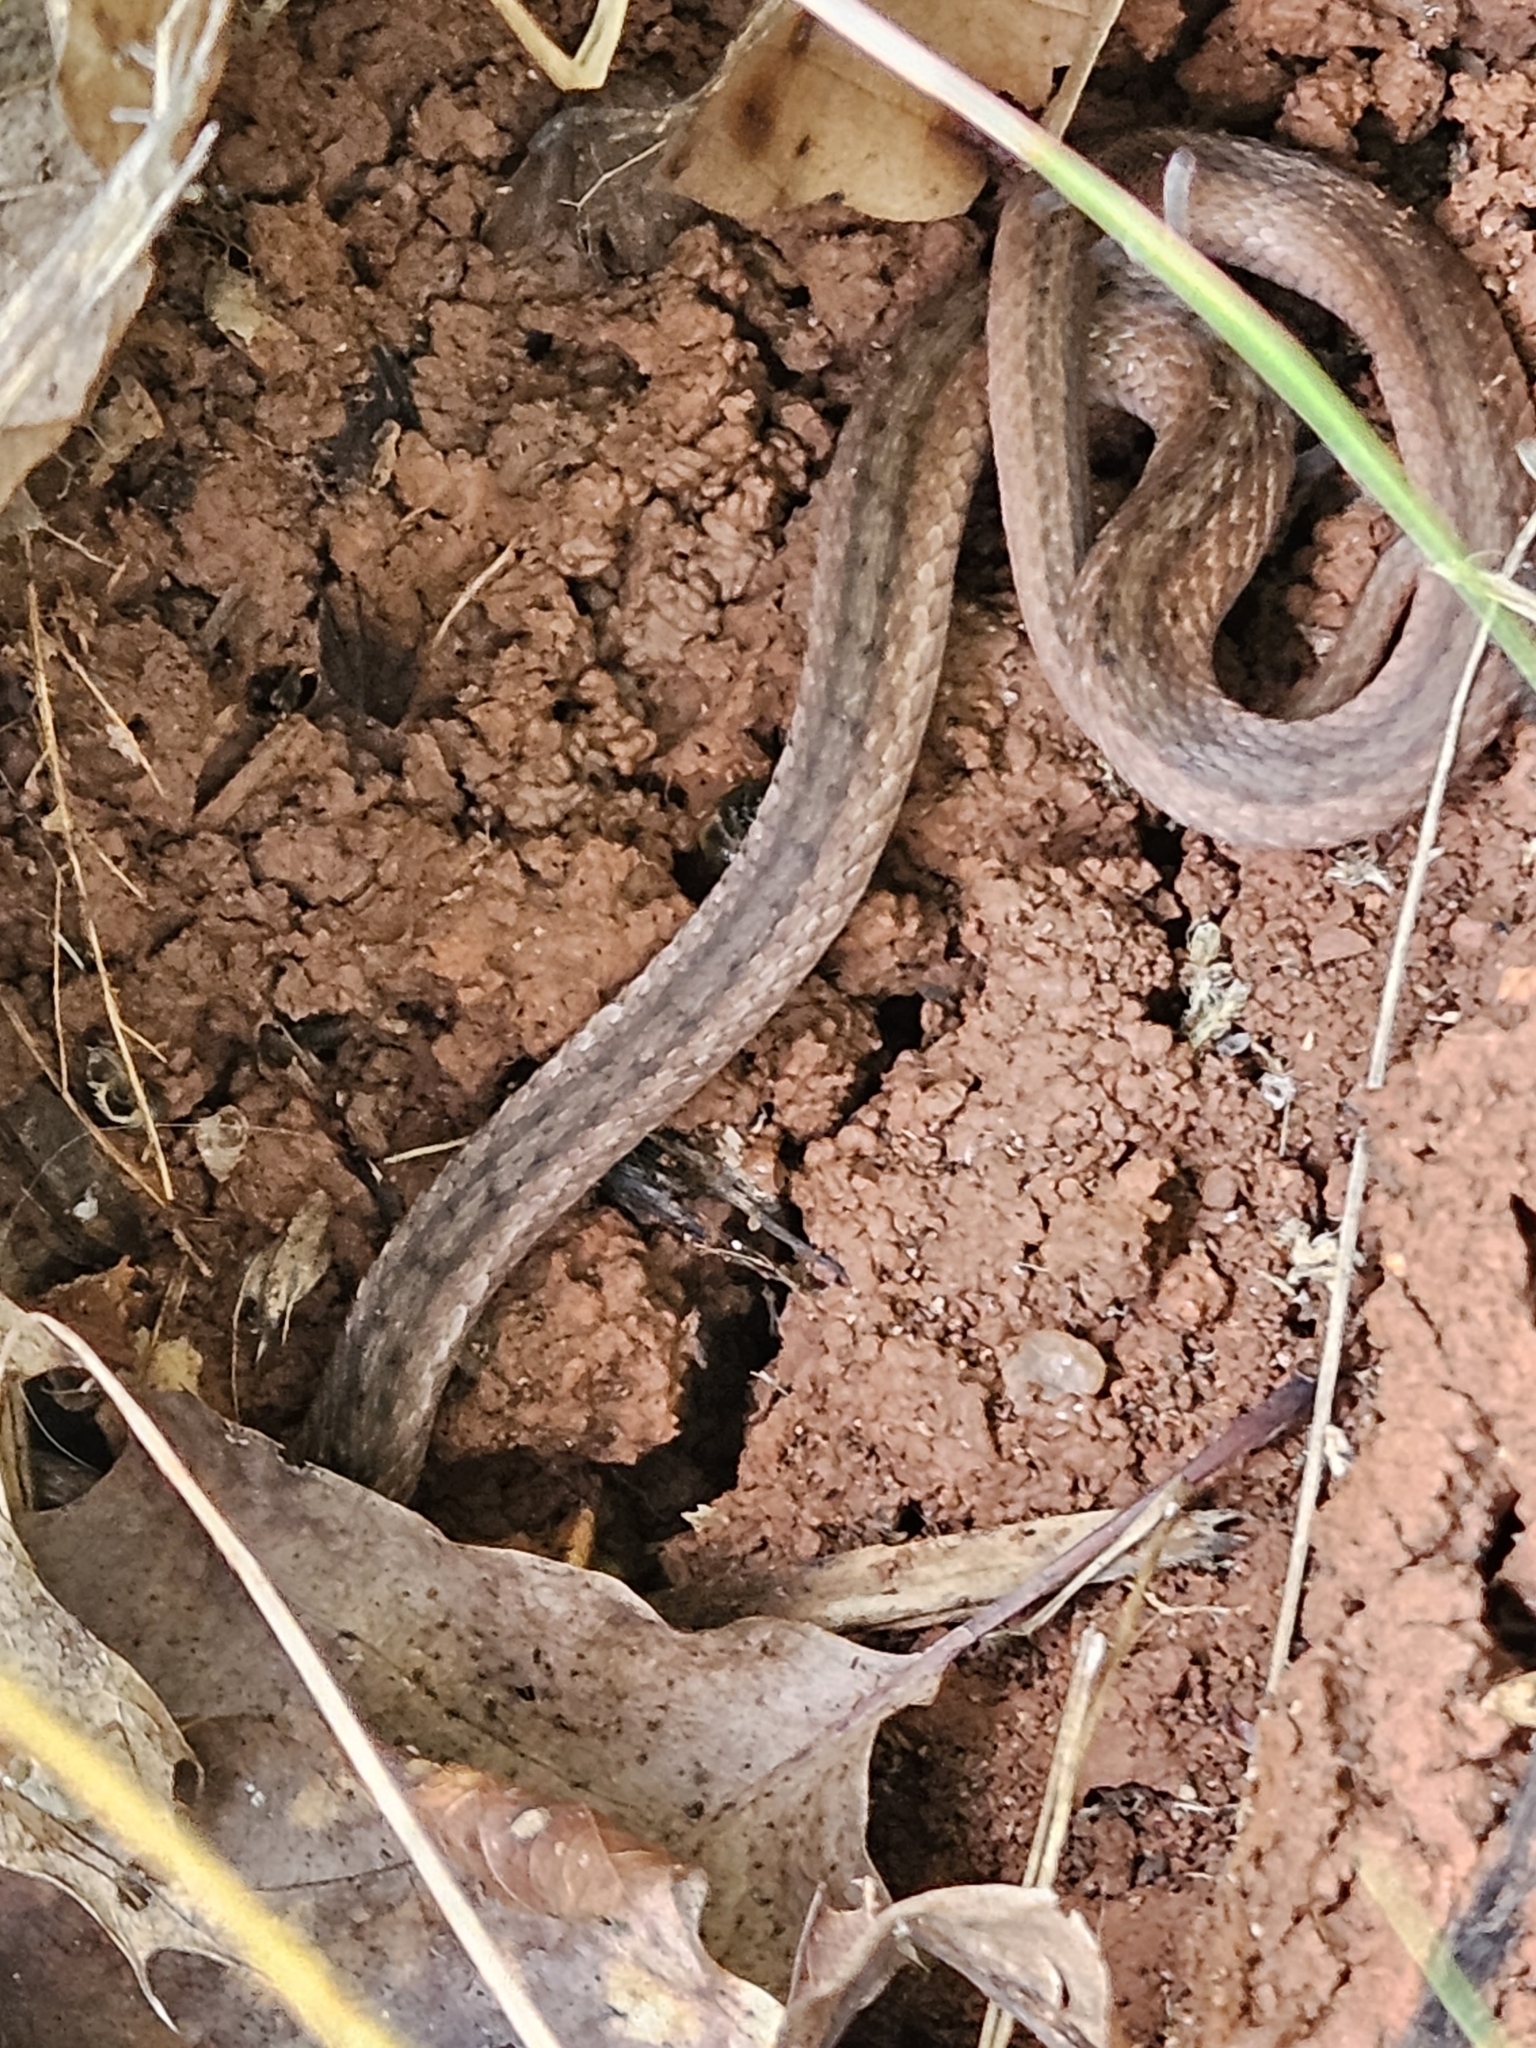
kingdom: Animalia
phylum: Chordata
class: Squamata
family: Colubridae
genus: Storeria
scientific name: Storeria dekayi
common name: (dekay’s) brown snake
